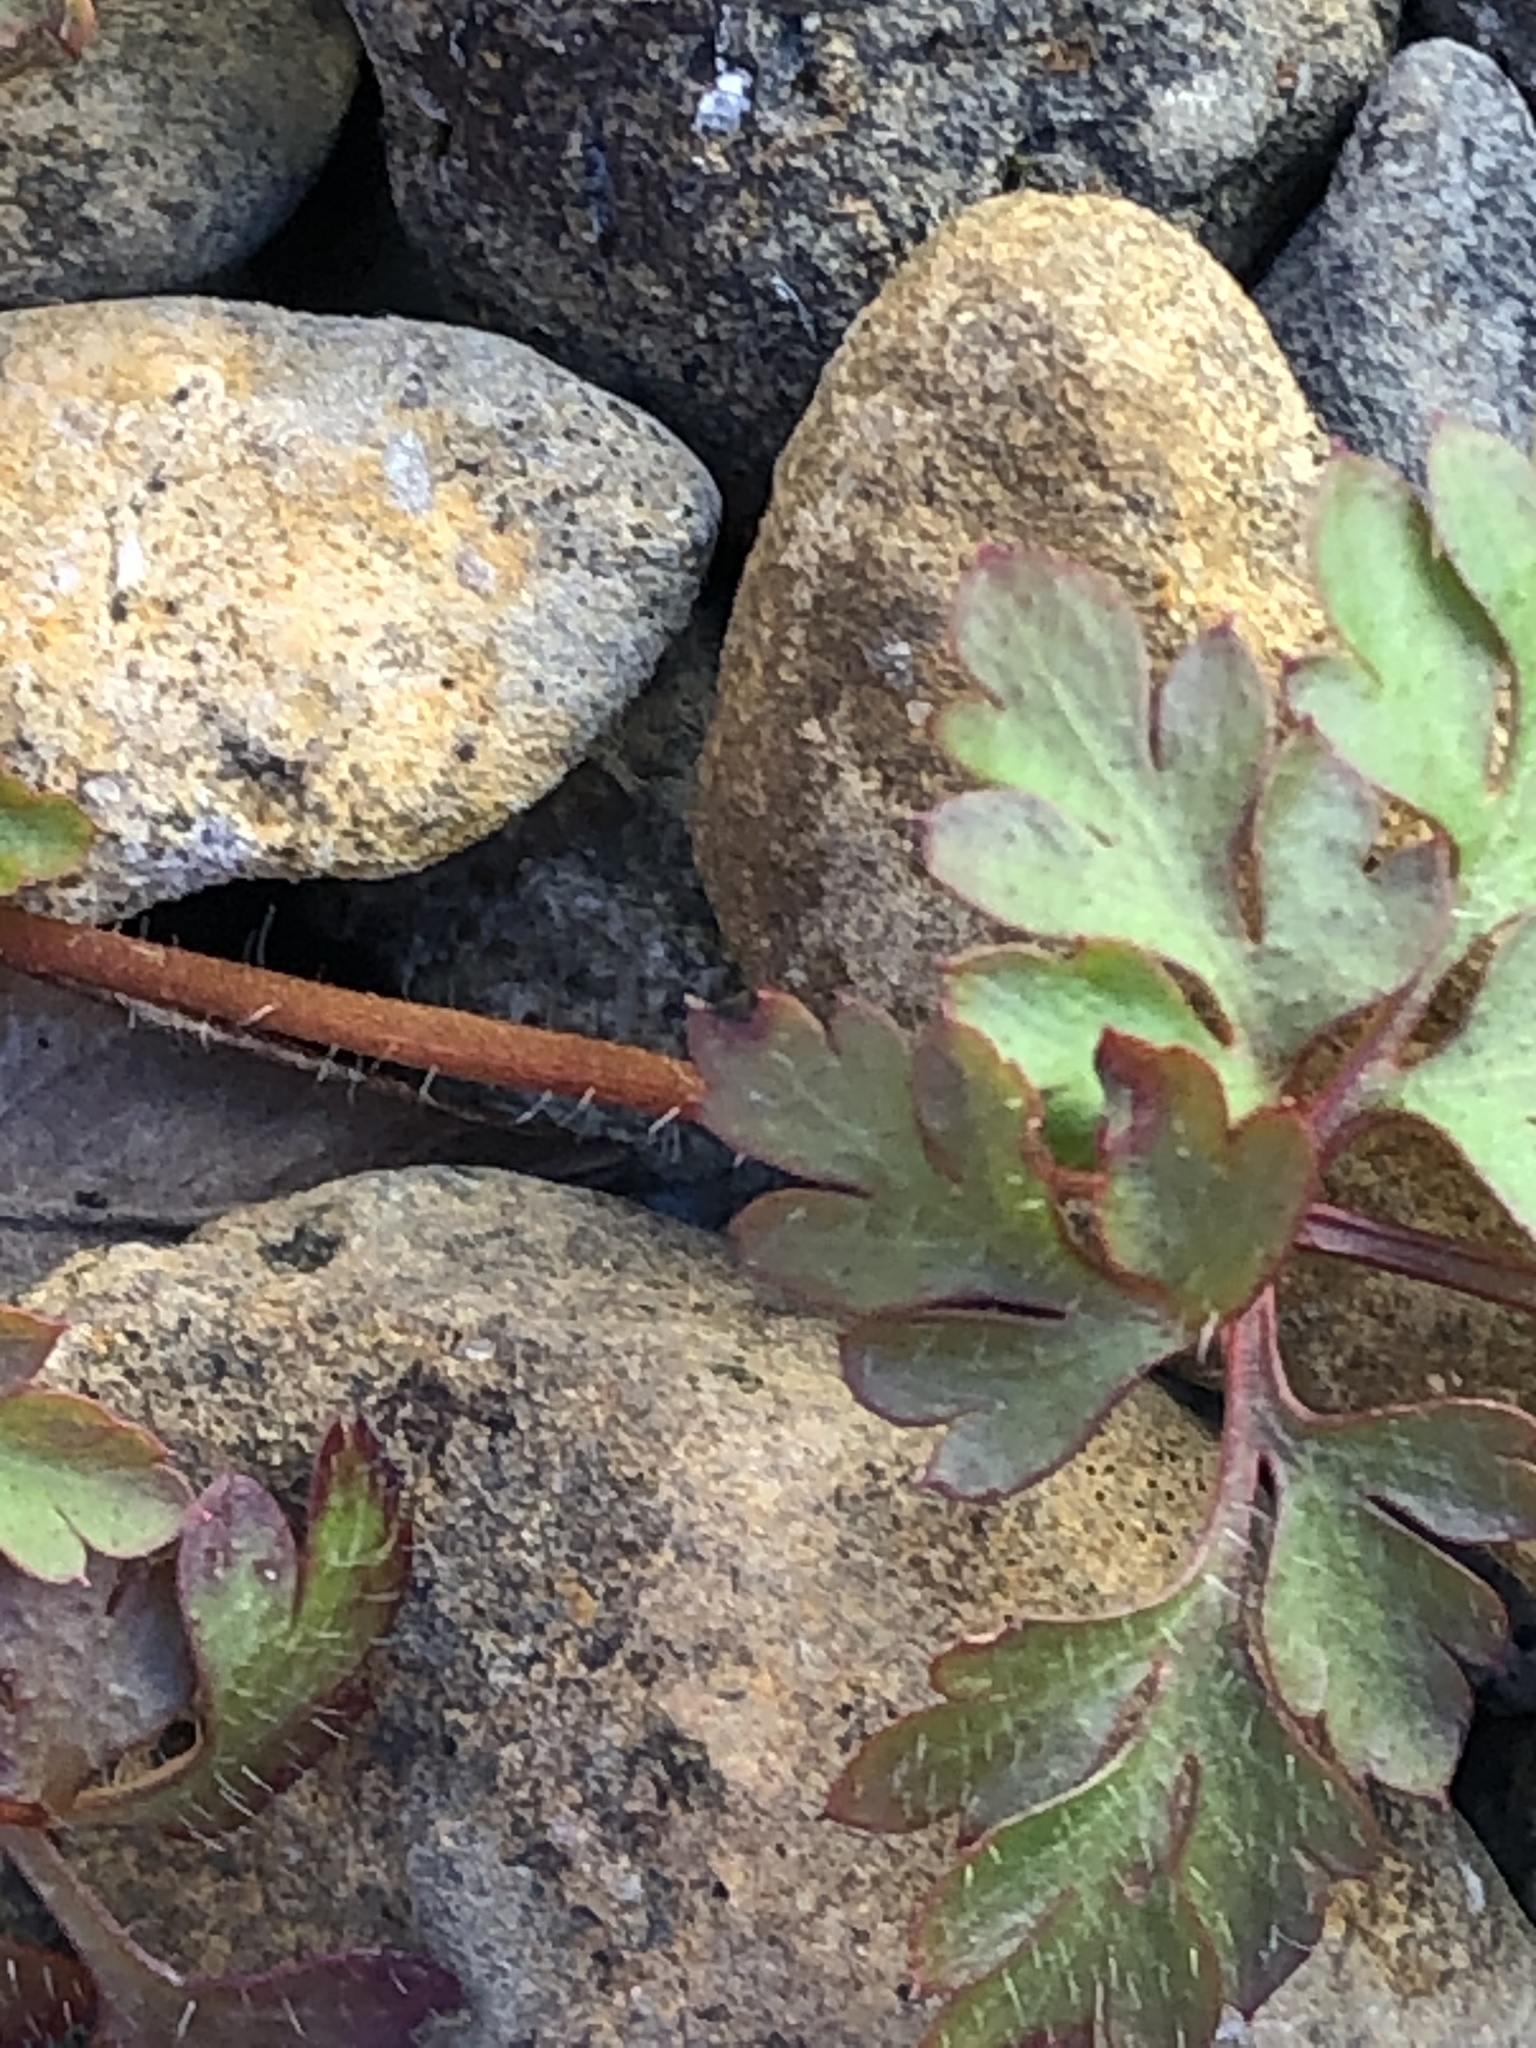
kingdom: Plantae
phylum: Tracheophyta
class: Magnoliopsida
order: Geraniales
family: Geraniaceae
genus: Geranium
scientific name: Geranium robertianum
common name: Herb-robert
